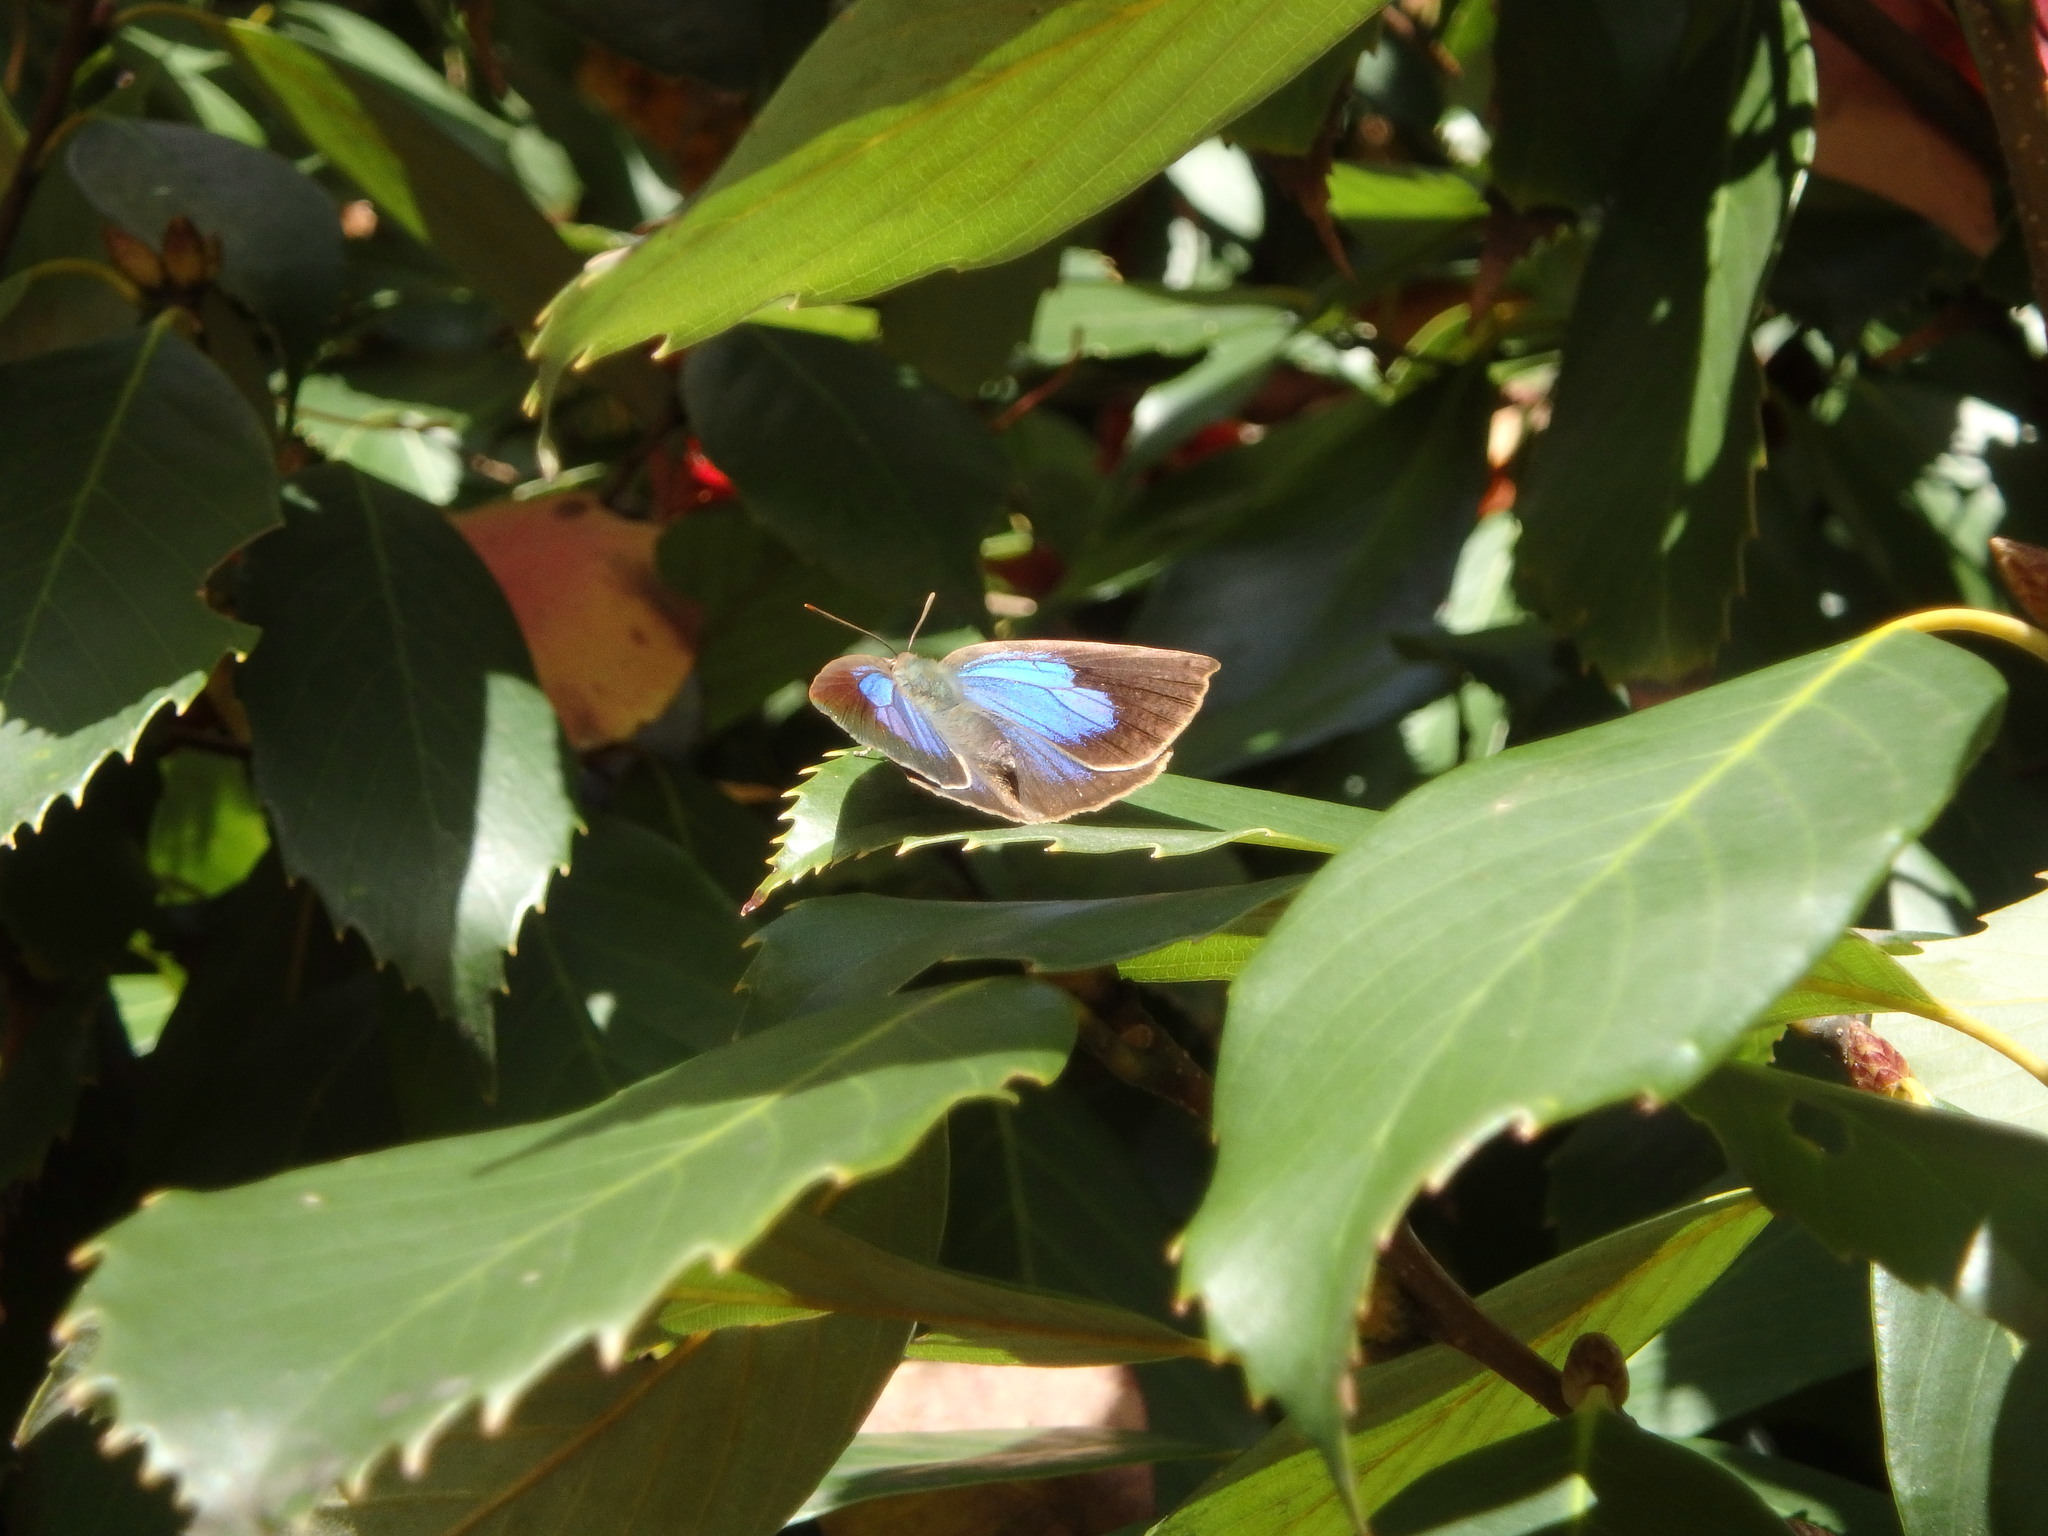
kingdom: Animalia
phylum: Arthropoda
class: Insecta
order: Lepidoptera
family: Lycaenidae
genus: Arhopala
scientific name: Arhopala japonica
